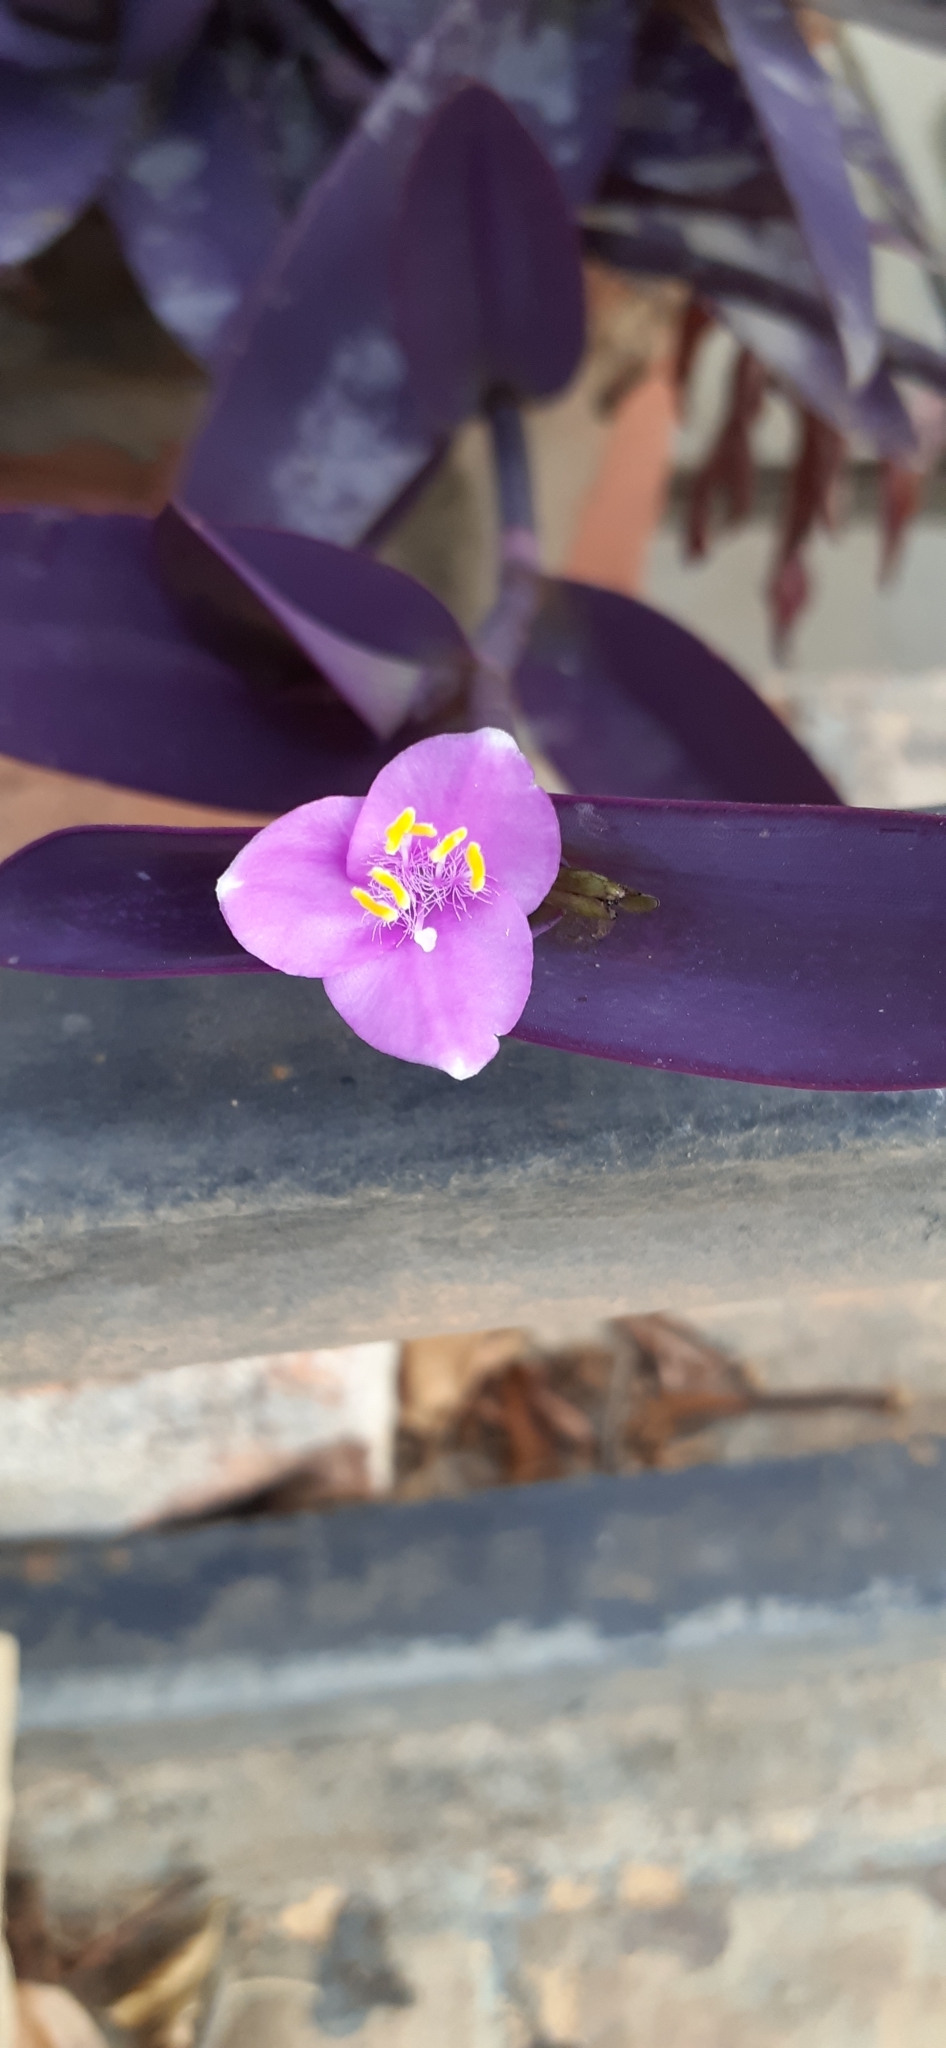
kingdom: Plantae
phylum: Tracheophyta
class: Liliopsida
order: Commelinales
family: Commelinaceae
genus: Tradescantia
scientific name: Tradescantia pallida
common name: Purpleheart
